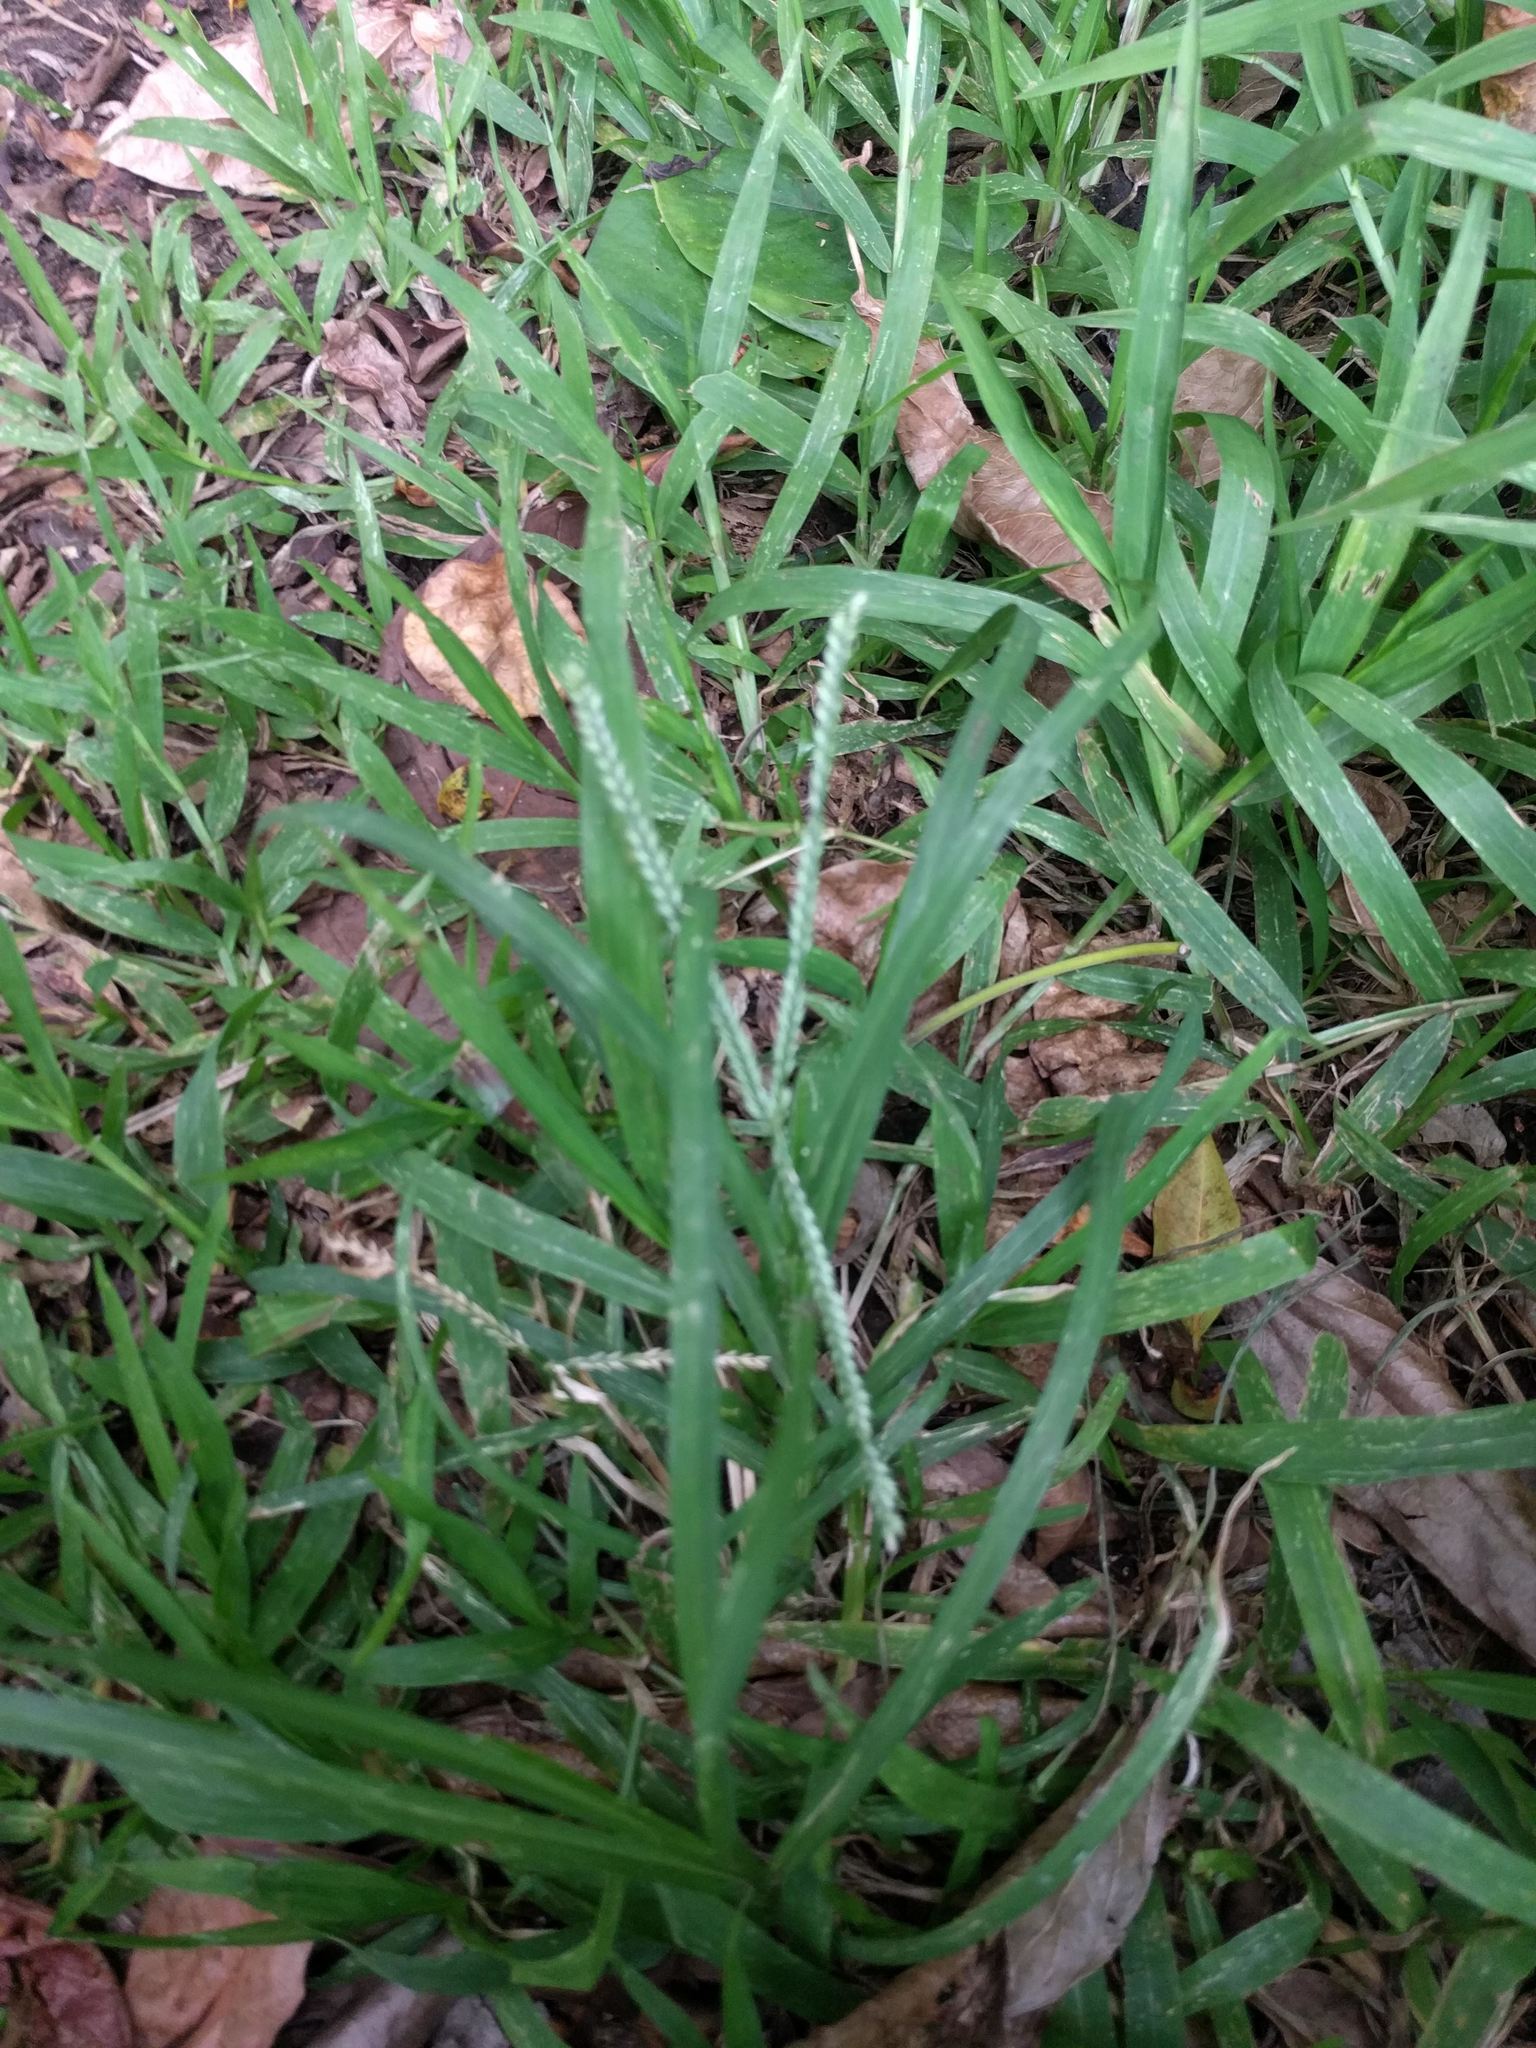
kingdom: Plantae
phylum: Tracheophyta
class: Liliopsida
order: Poales
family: Poaceae
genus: Eleusine
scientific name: Eleusine indica
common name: Yard-grass
